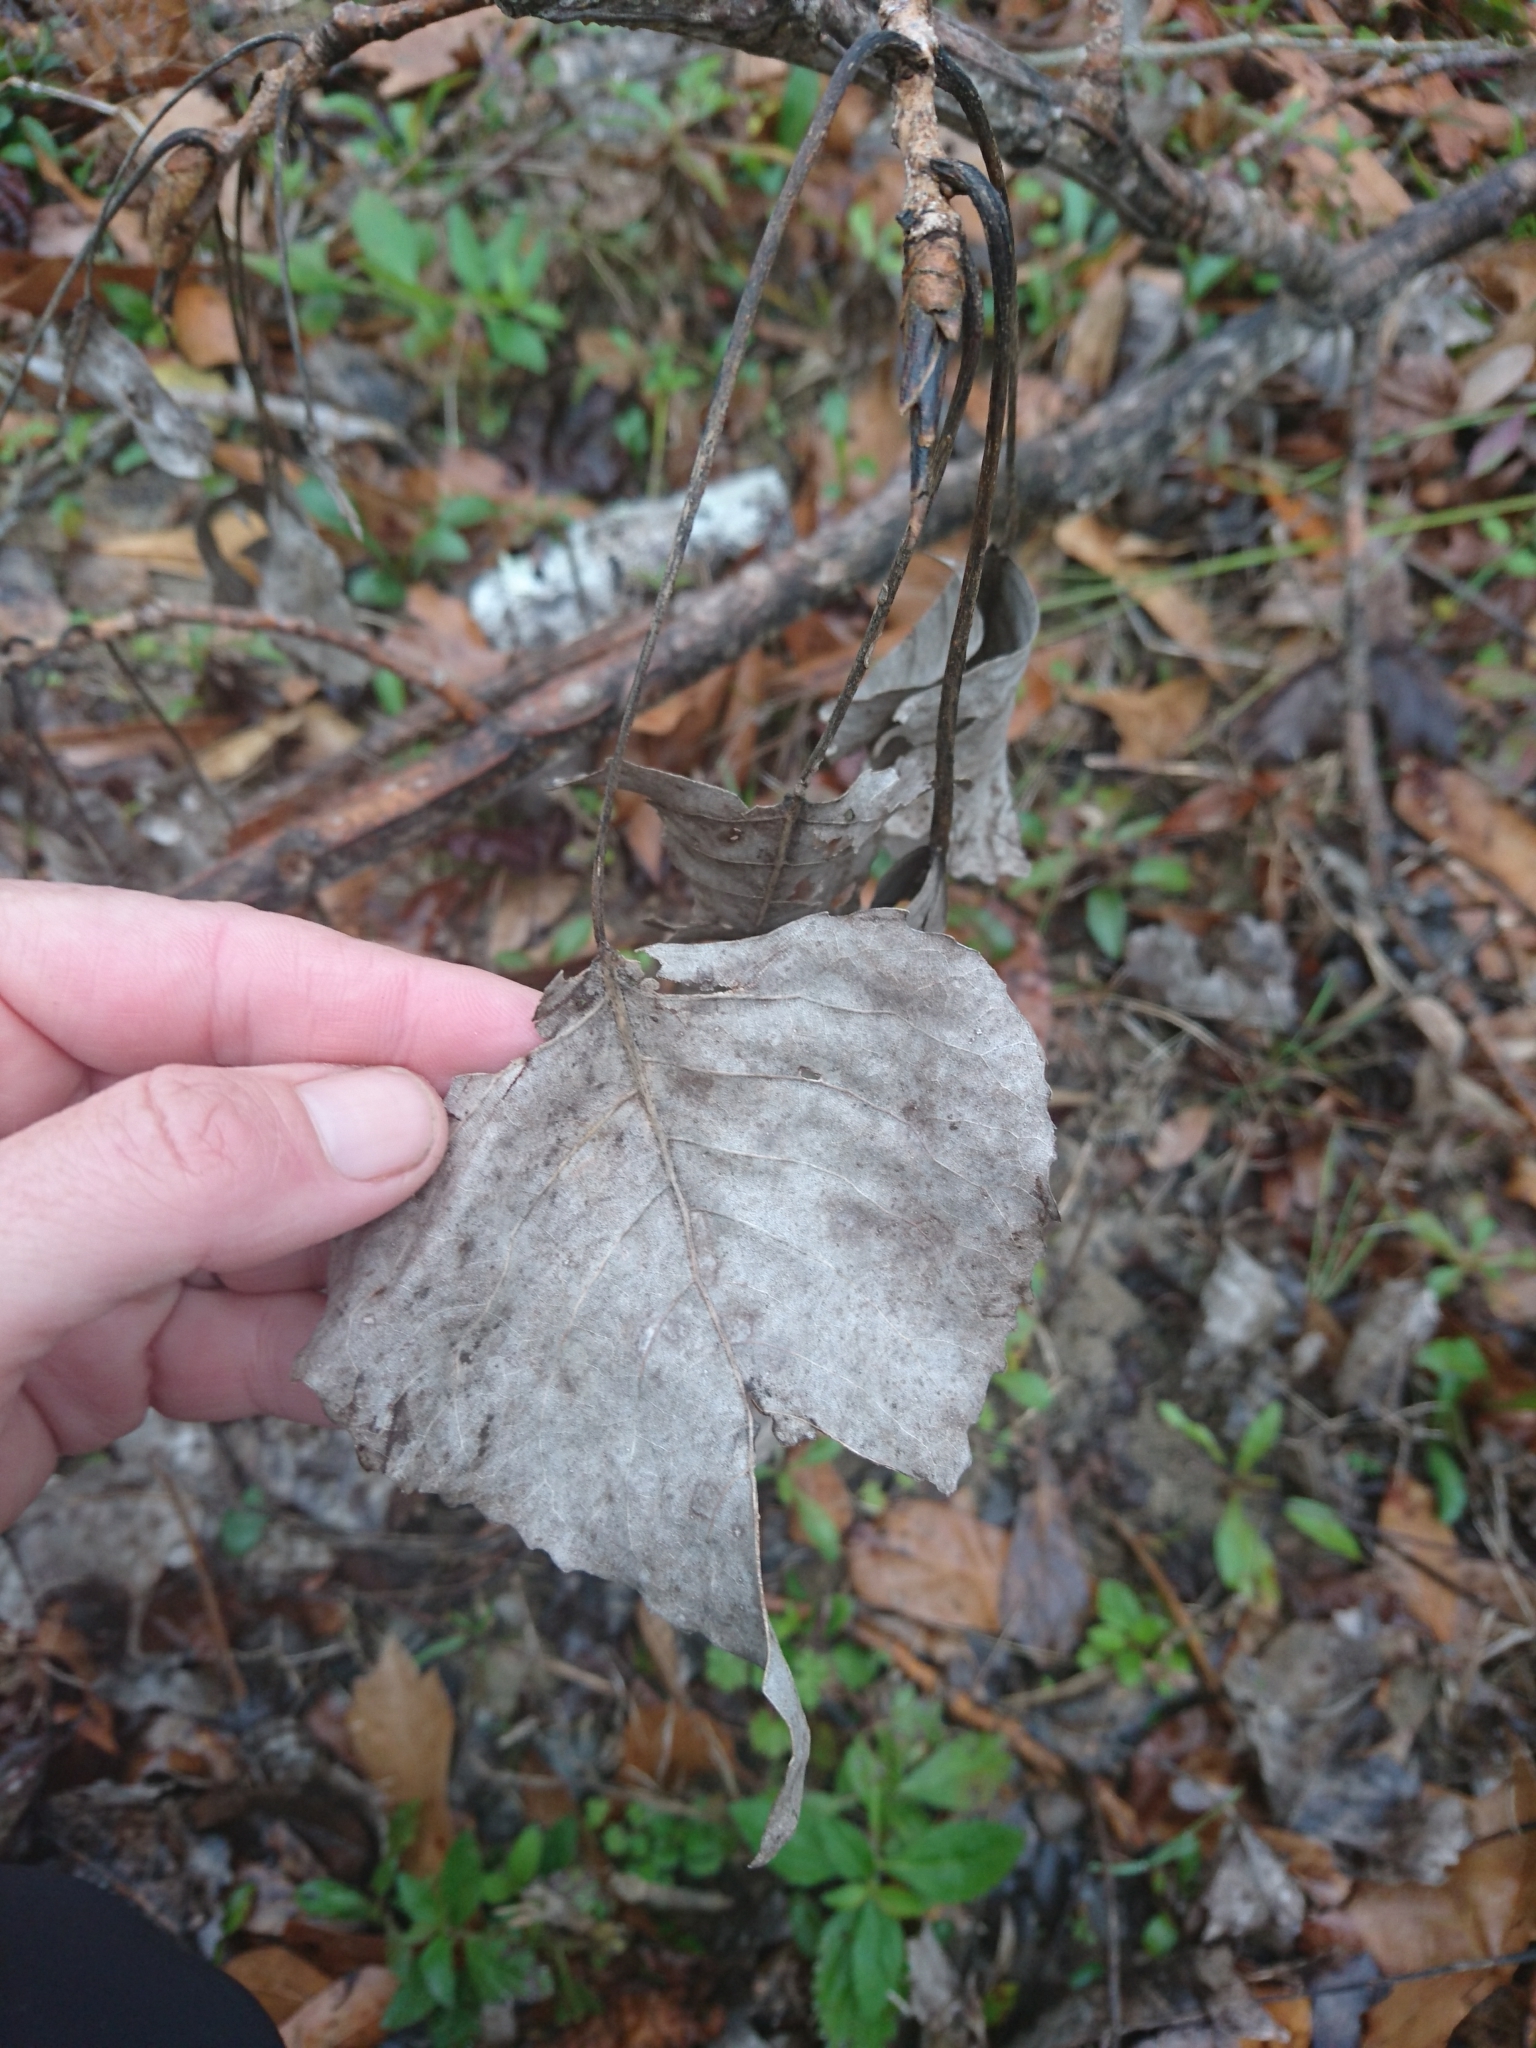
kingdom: Plantae
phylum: Tracheophyta
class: Magnoliopsida
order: Malpighiales
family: Salicaceae
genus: Populus
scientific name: Populus deltoides
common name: Eastern cottonwood
